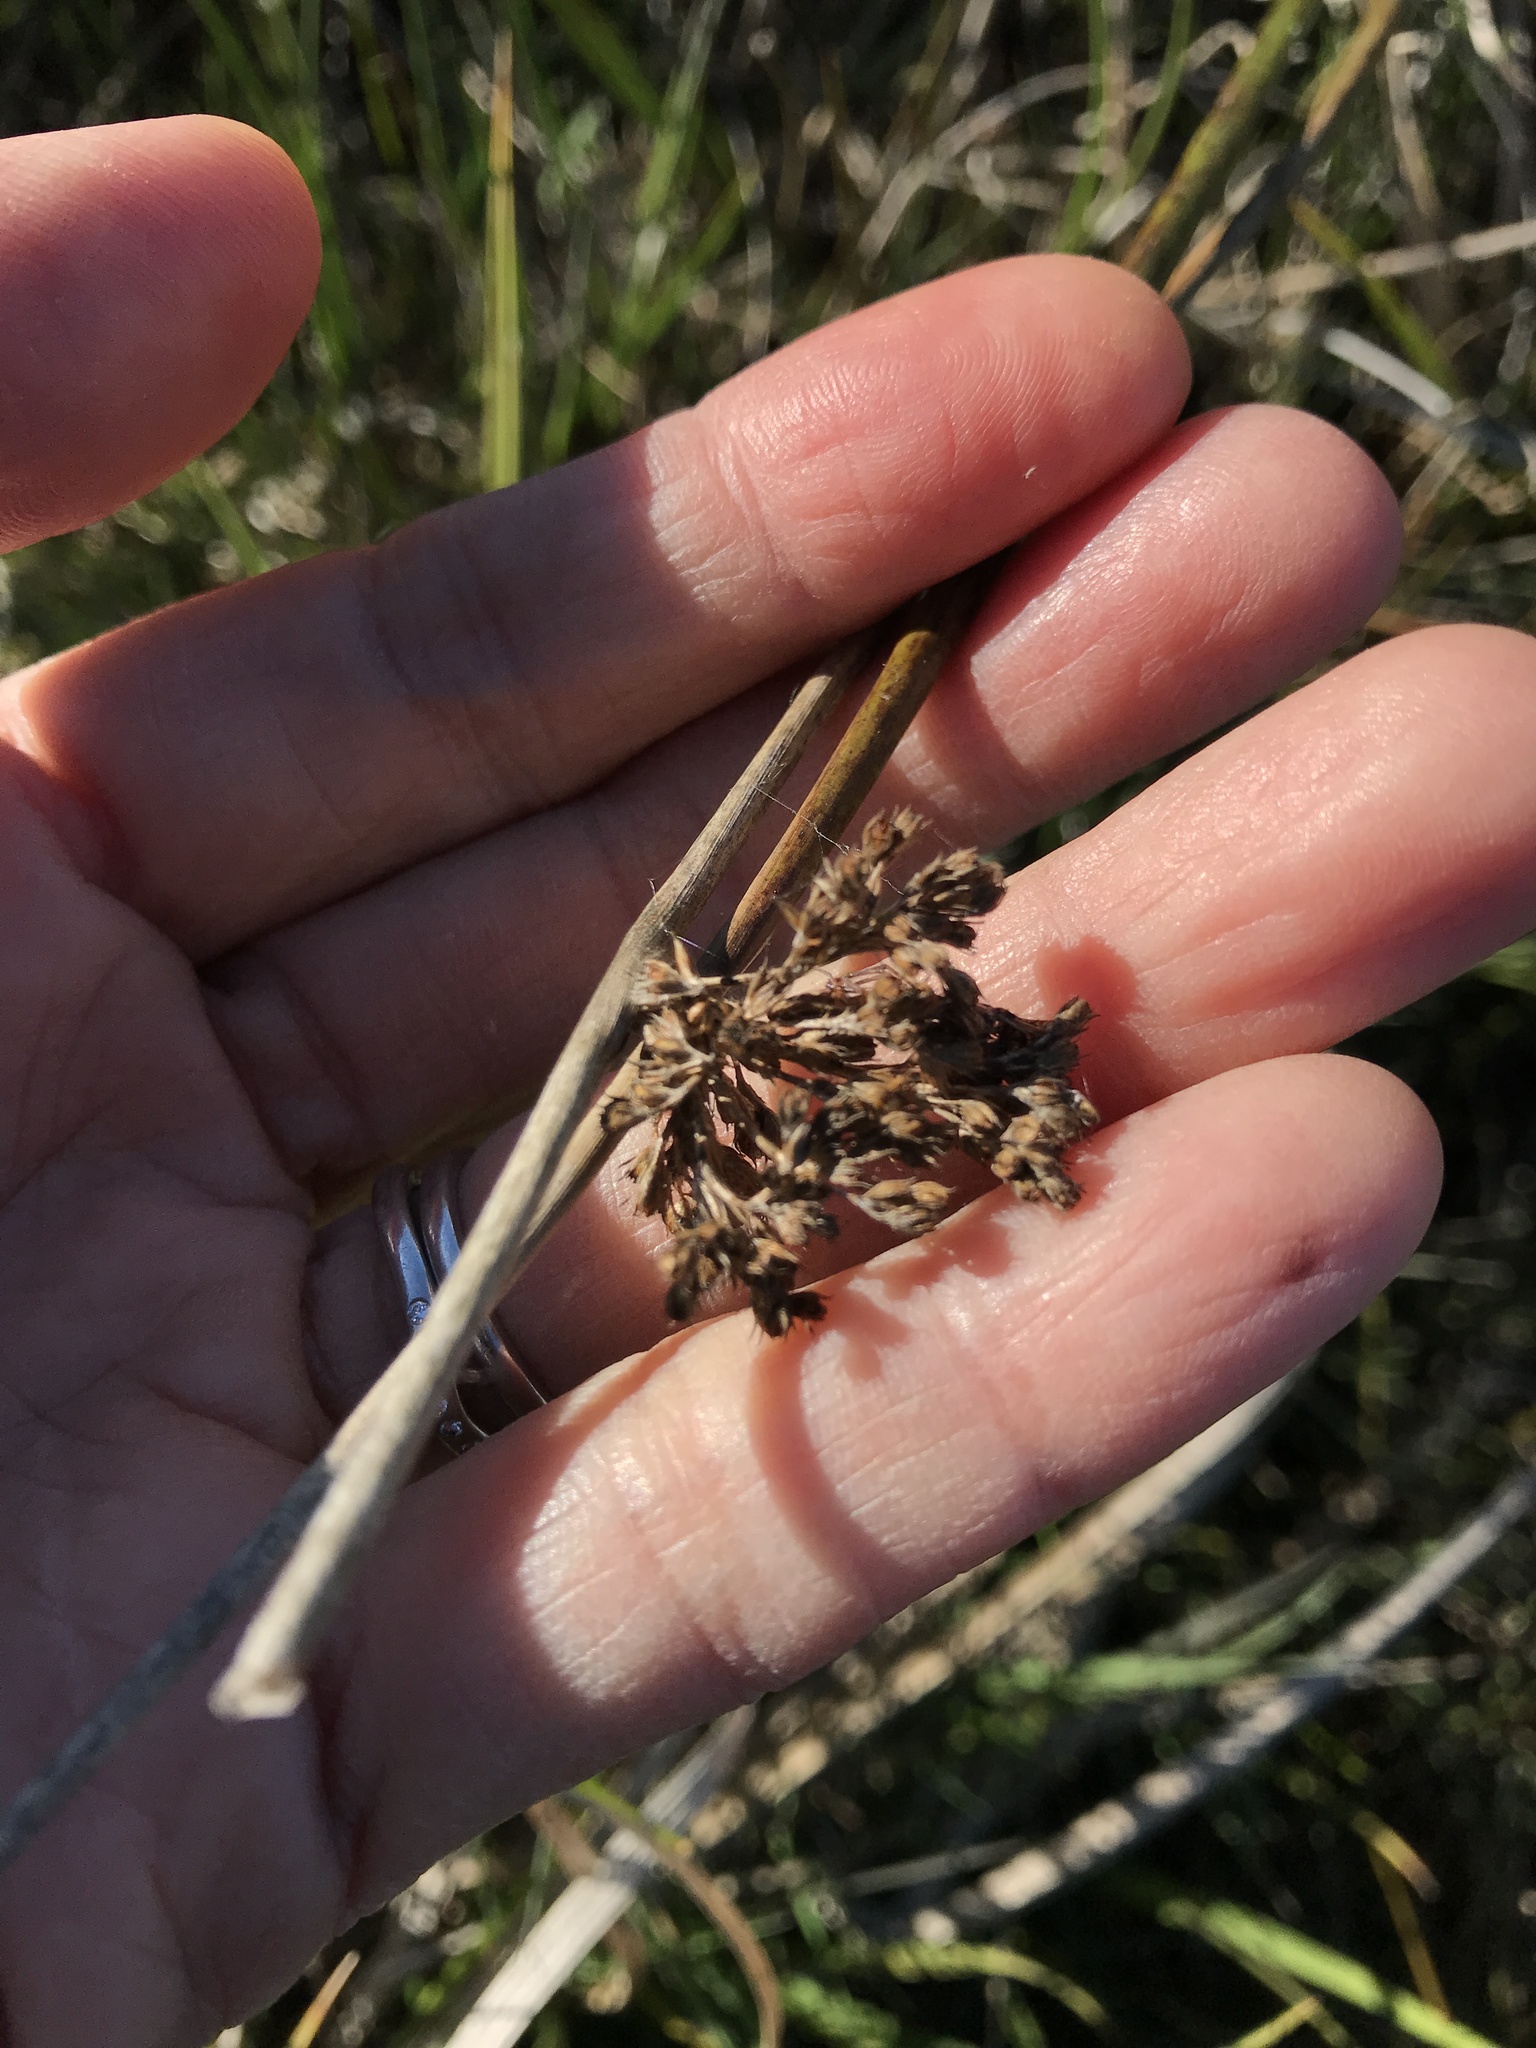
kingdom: Plantae
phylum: Tracheophyta
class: Liliopsida
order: Poales
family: Juncaceae
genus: Juncus
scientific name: Juncus procerus
